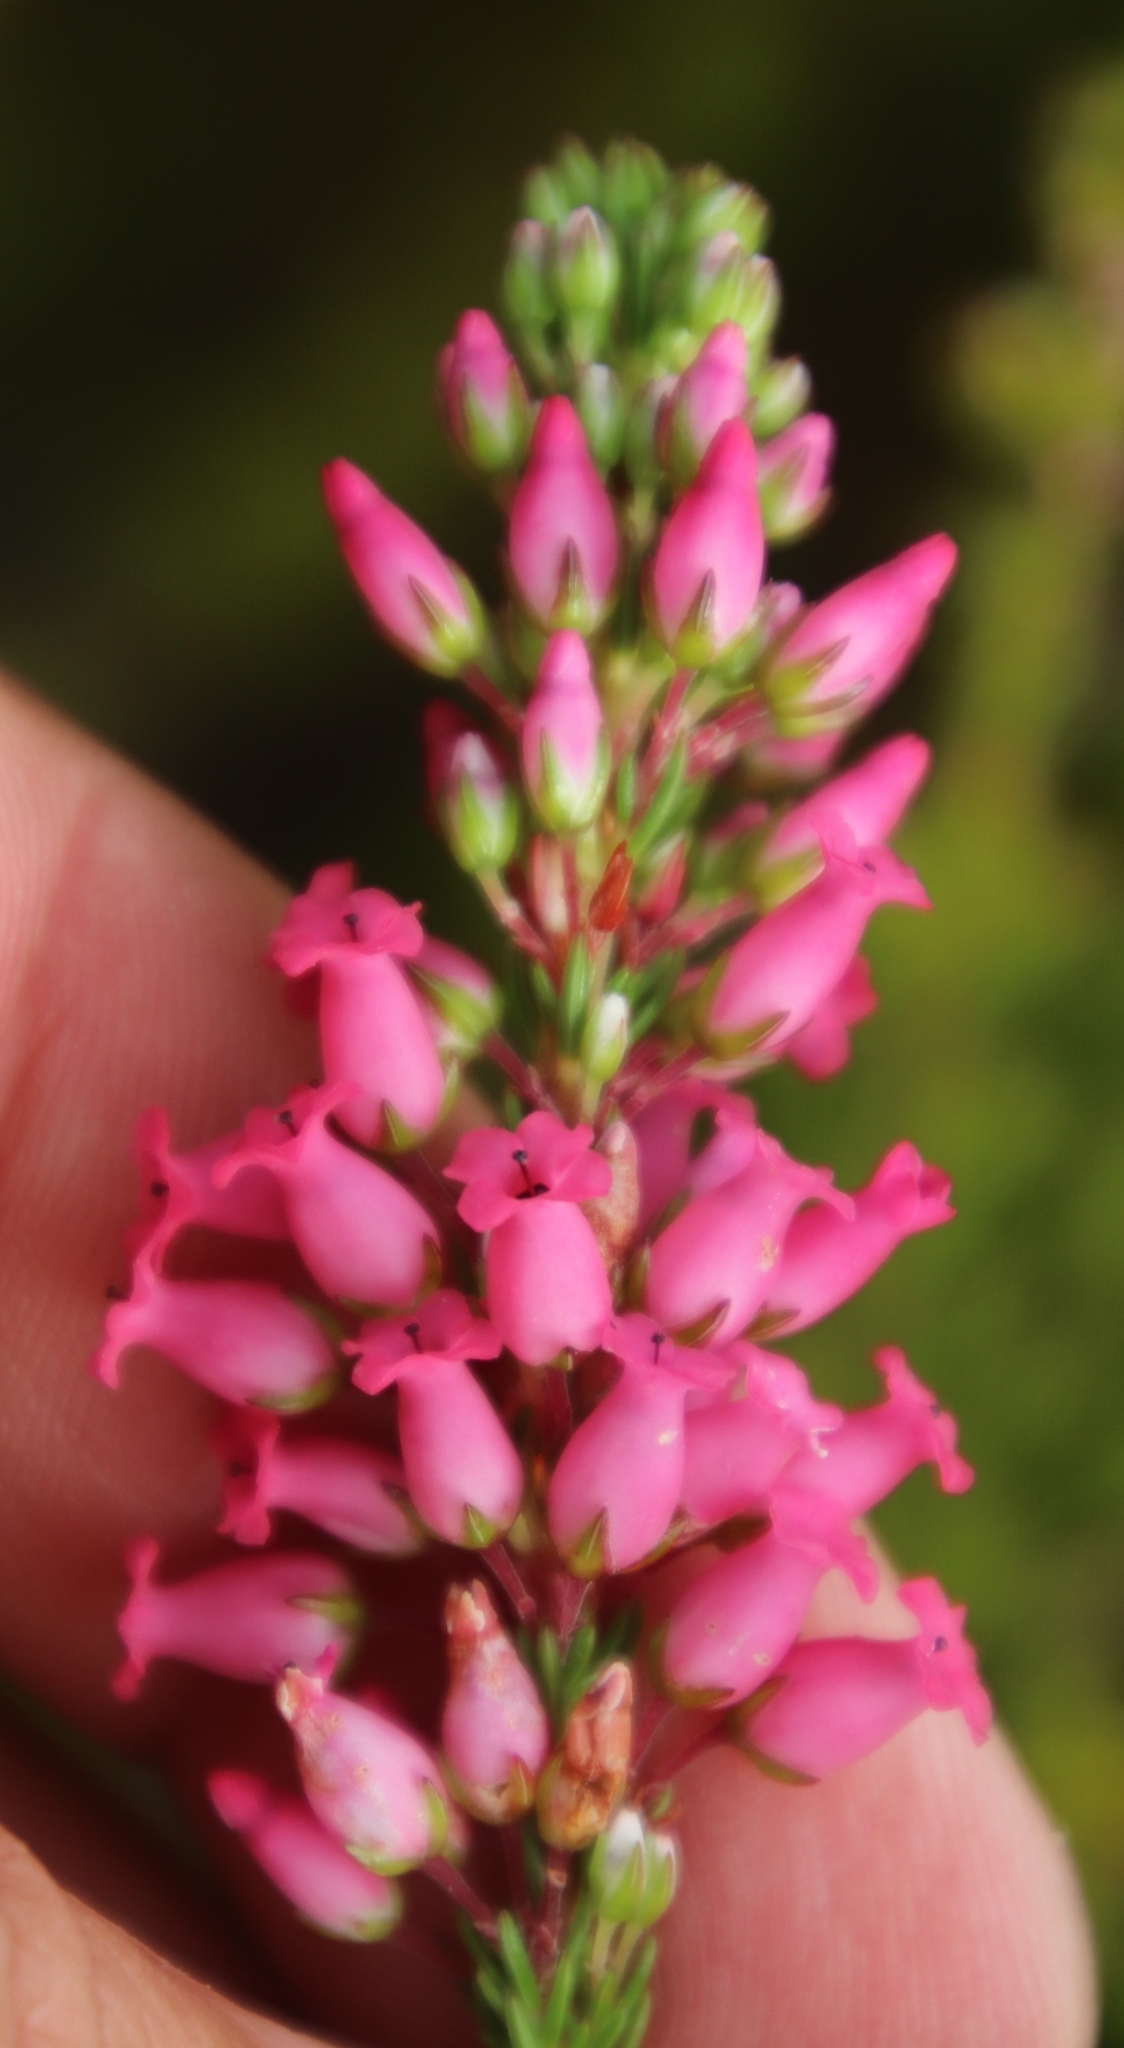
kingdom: Plantae
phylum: Tracheophyta
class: Magnoliopsida
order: Ericales
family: Ericaceae
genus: Erica
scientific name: Erica tenella
